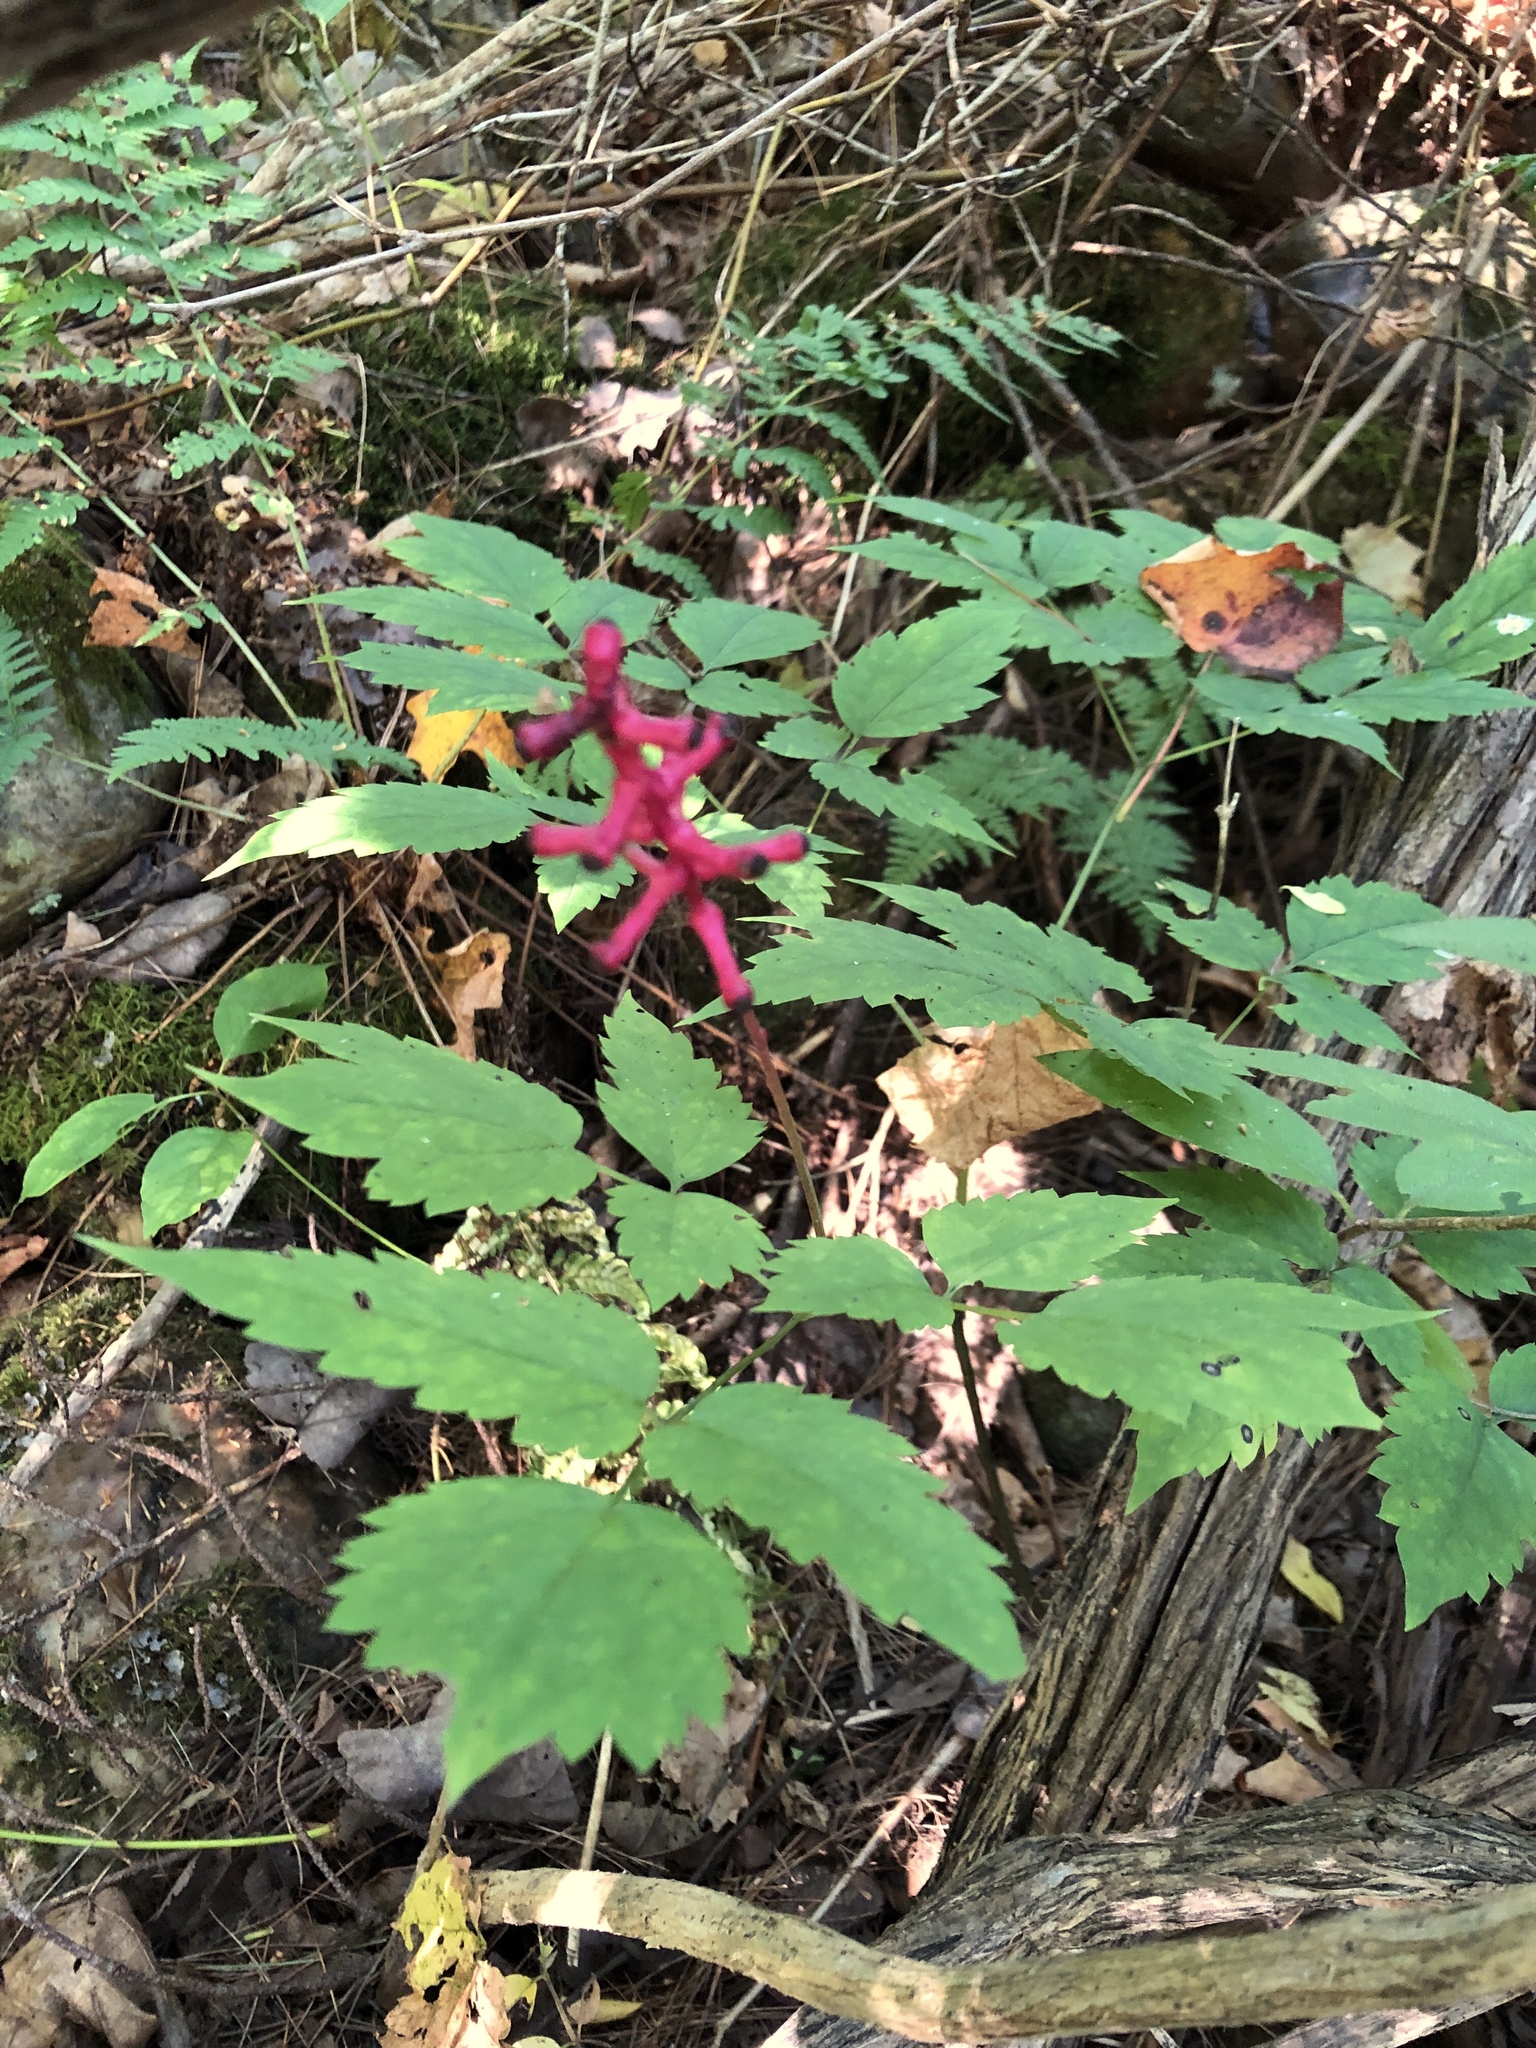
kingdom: Plantae
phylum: Tracheophyta
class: Magnoliopsida
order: Ranunculales
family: Ranunculaceae
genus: Actaea
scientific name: Actaea pachypoda
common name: Doll's-eyes
